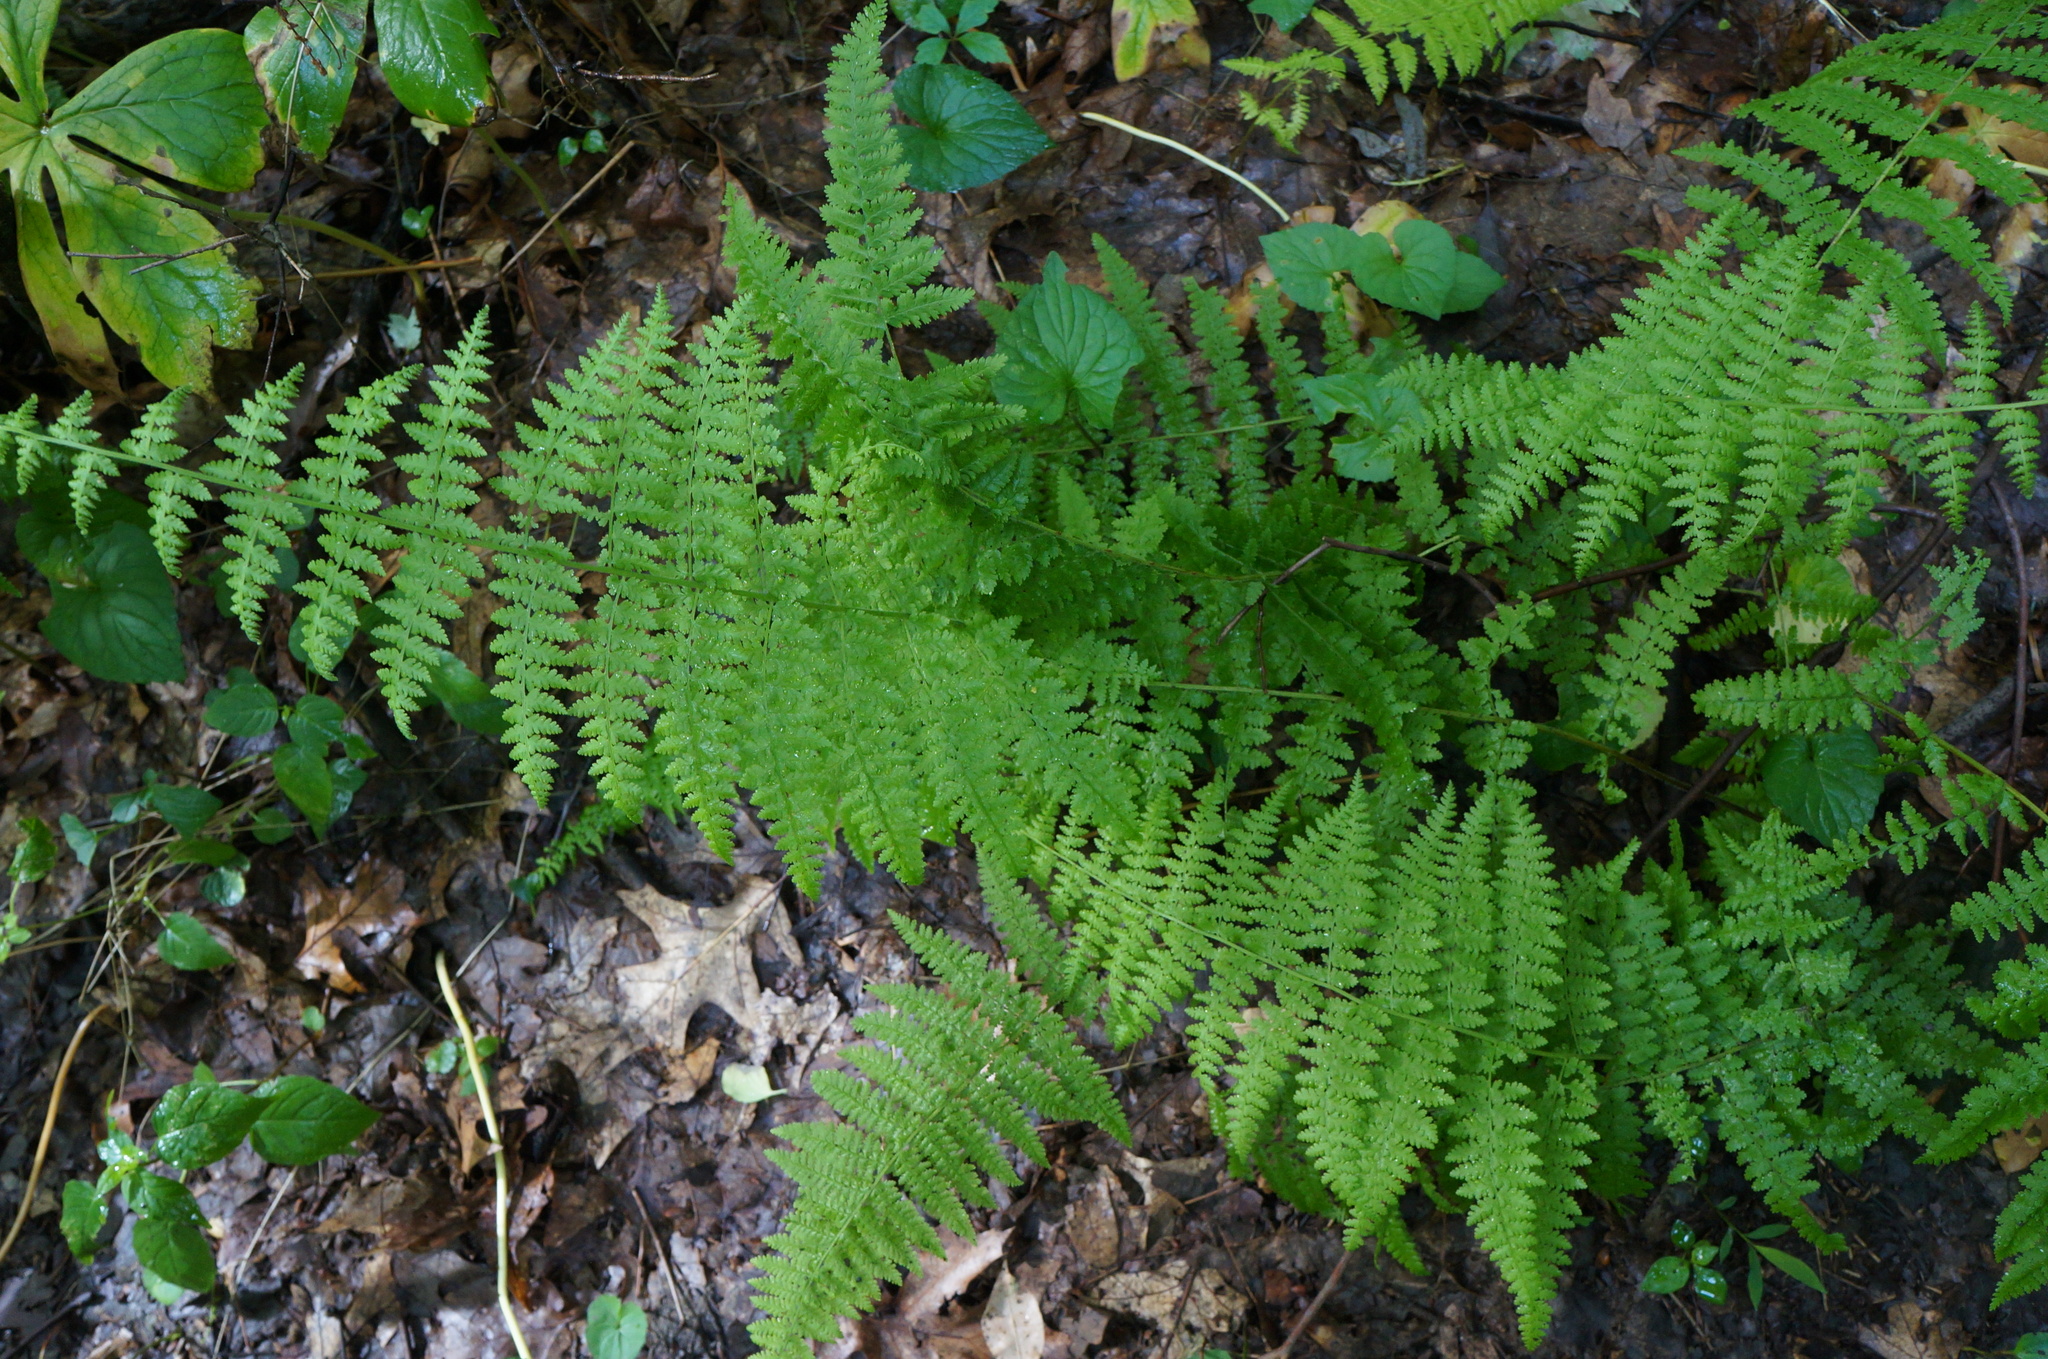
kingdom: Plantae
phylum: Tracheophyta
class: Polypodiopsida
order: Polypodiales
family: Dennstaedtiaceae
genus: Sitobolium
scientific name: Sitobolium punctilobum
